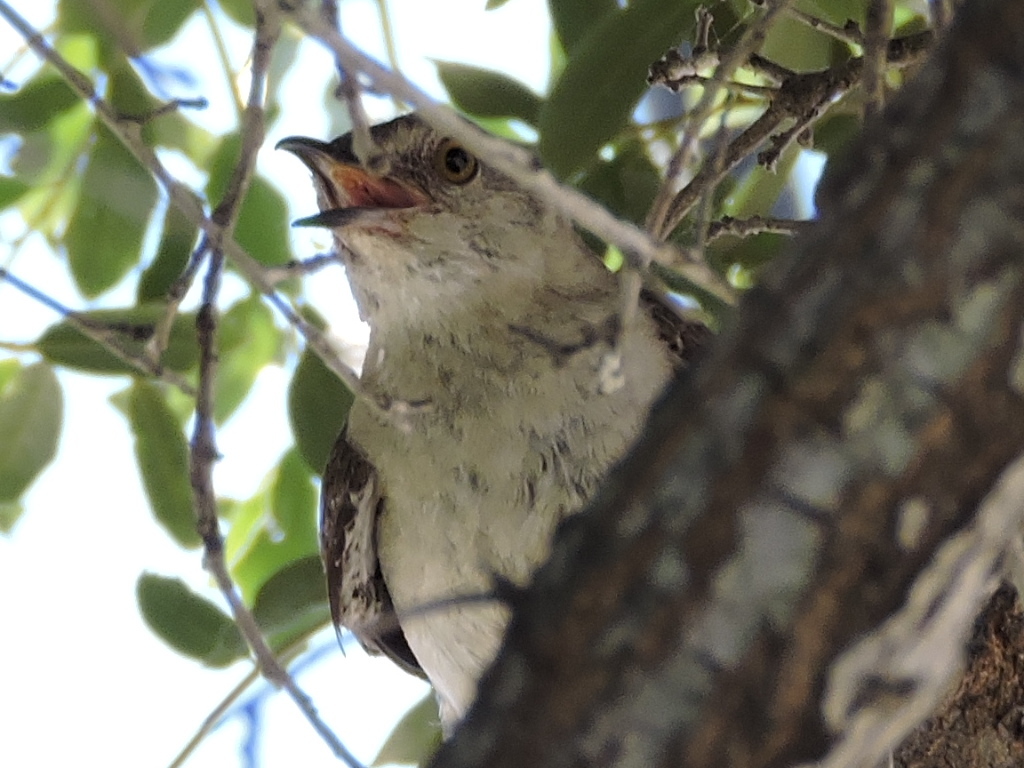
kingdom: Animalia
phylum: Chordata
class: Aves
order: Passeriformes
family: Mimidae
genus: Mimus
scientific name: Mimus polyglottos
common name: Northern mockingbird
